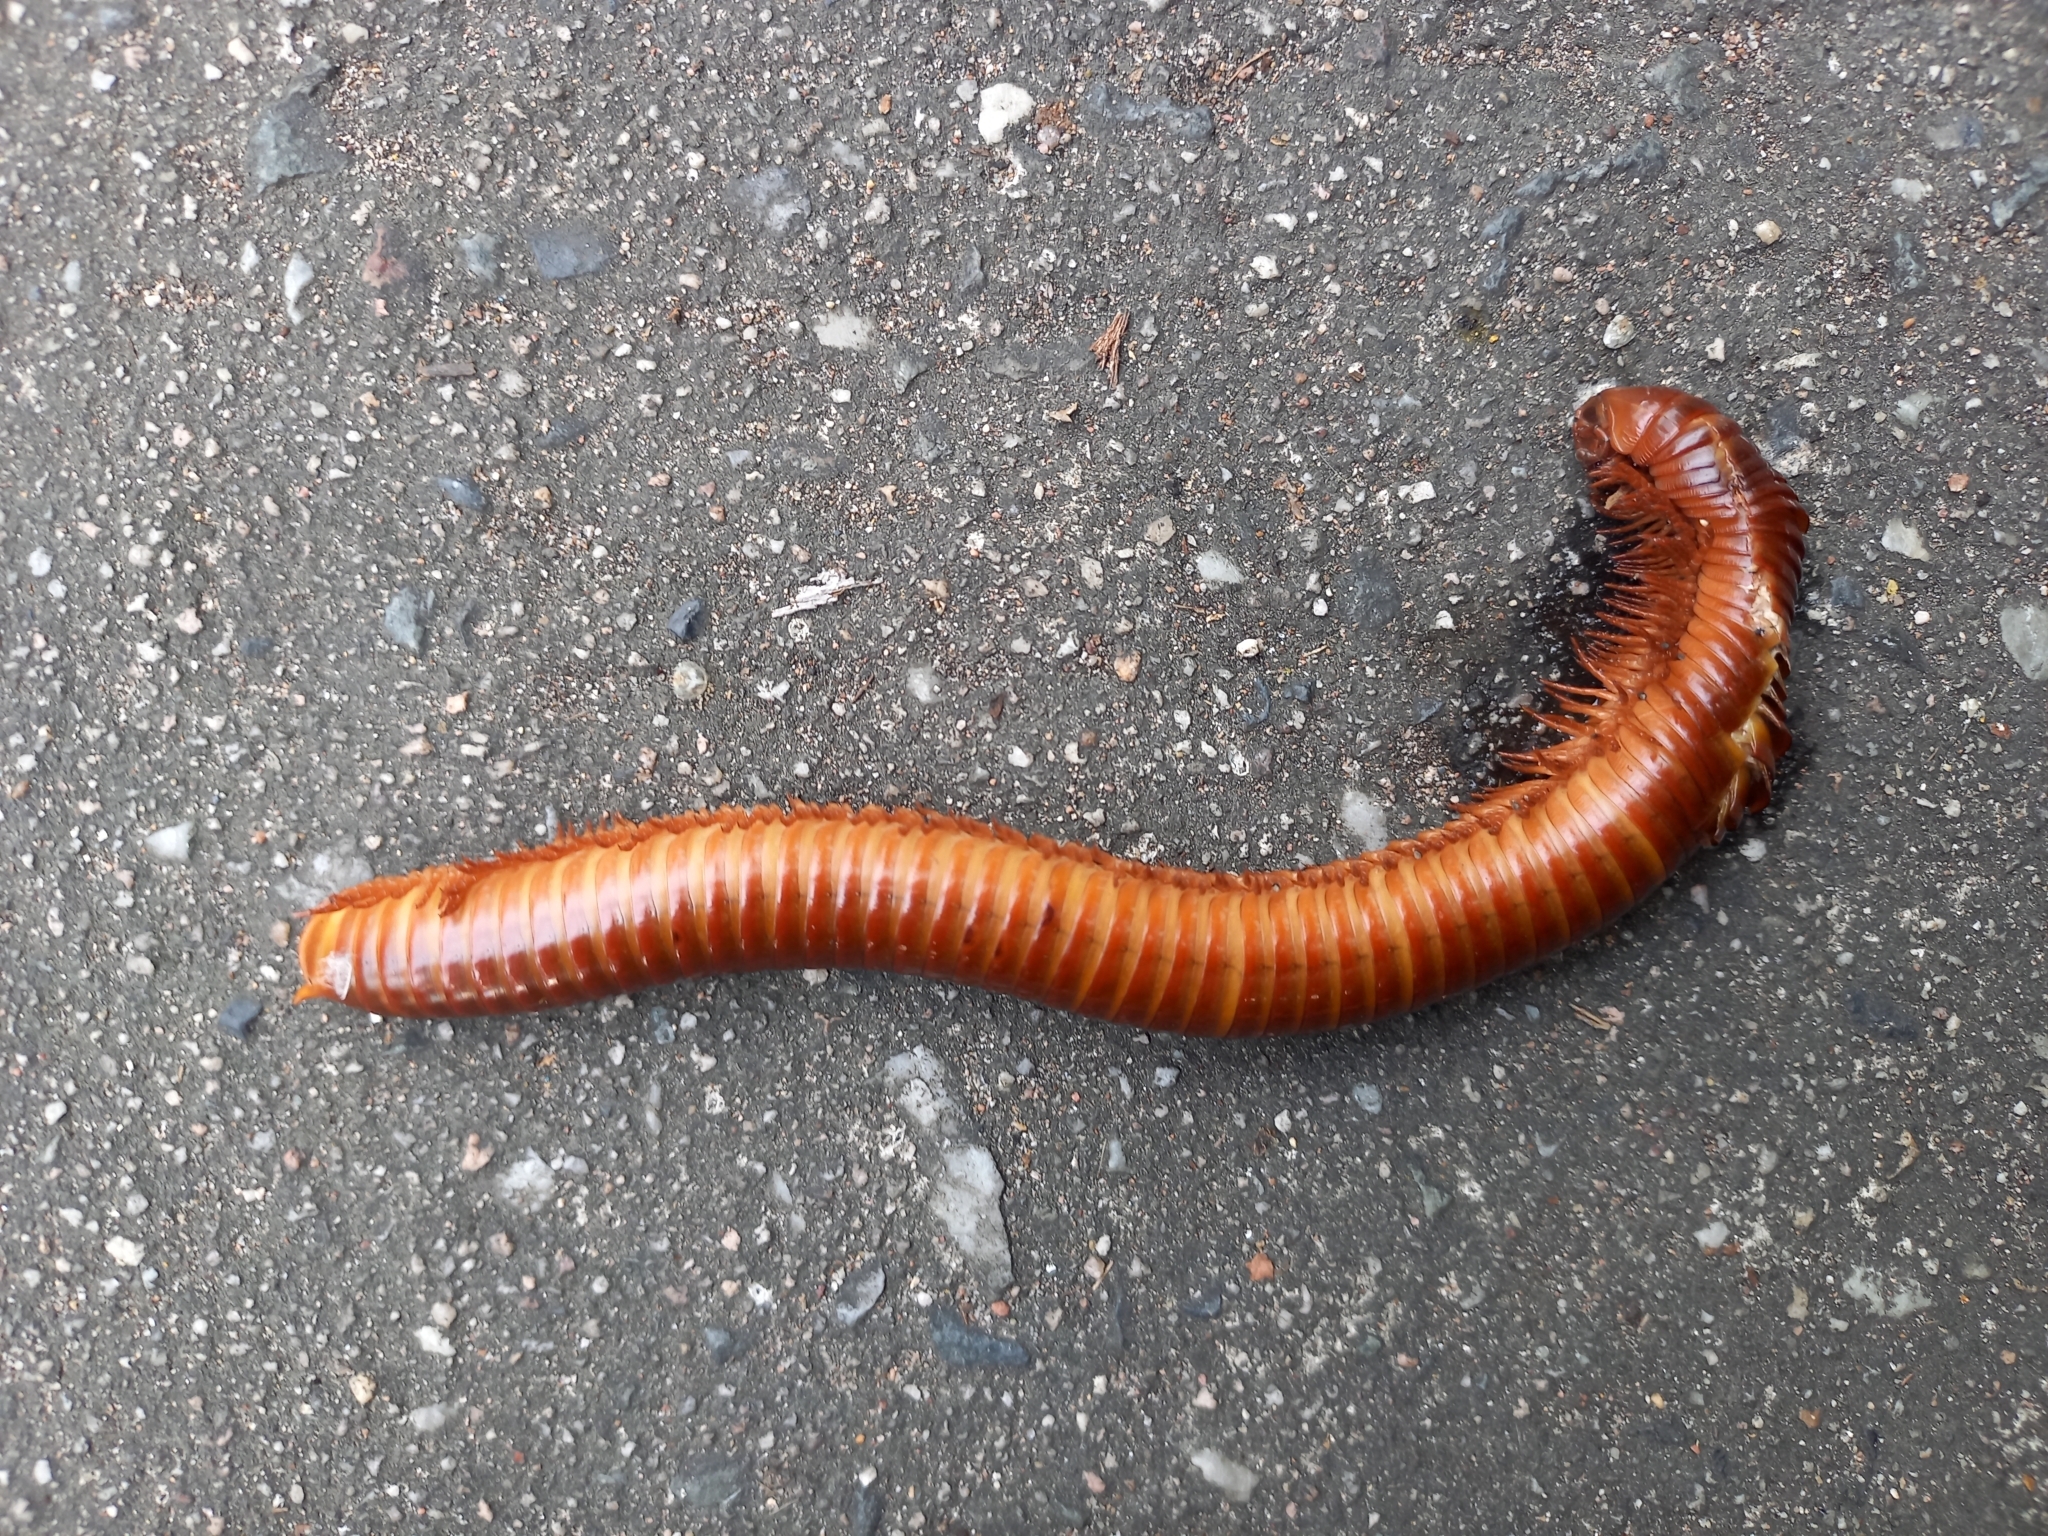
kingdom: Animalia
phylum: Arthropoda
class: Diplopoda
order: Spirostreptida
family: Harpagophoridae
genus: Thyropygus
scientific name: Thyropygus allevatus
